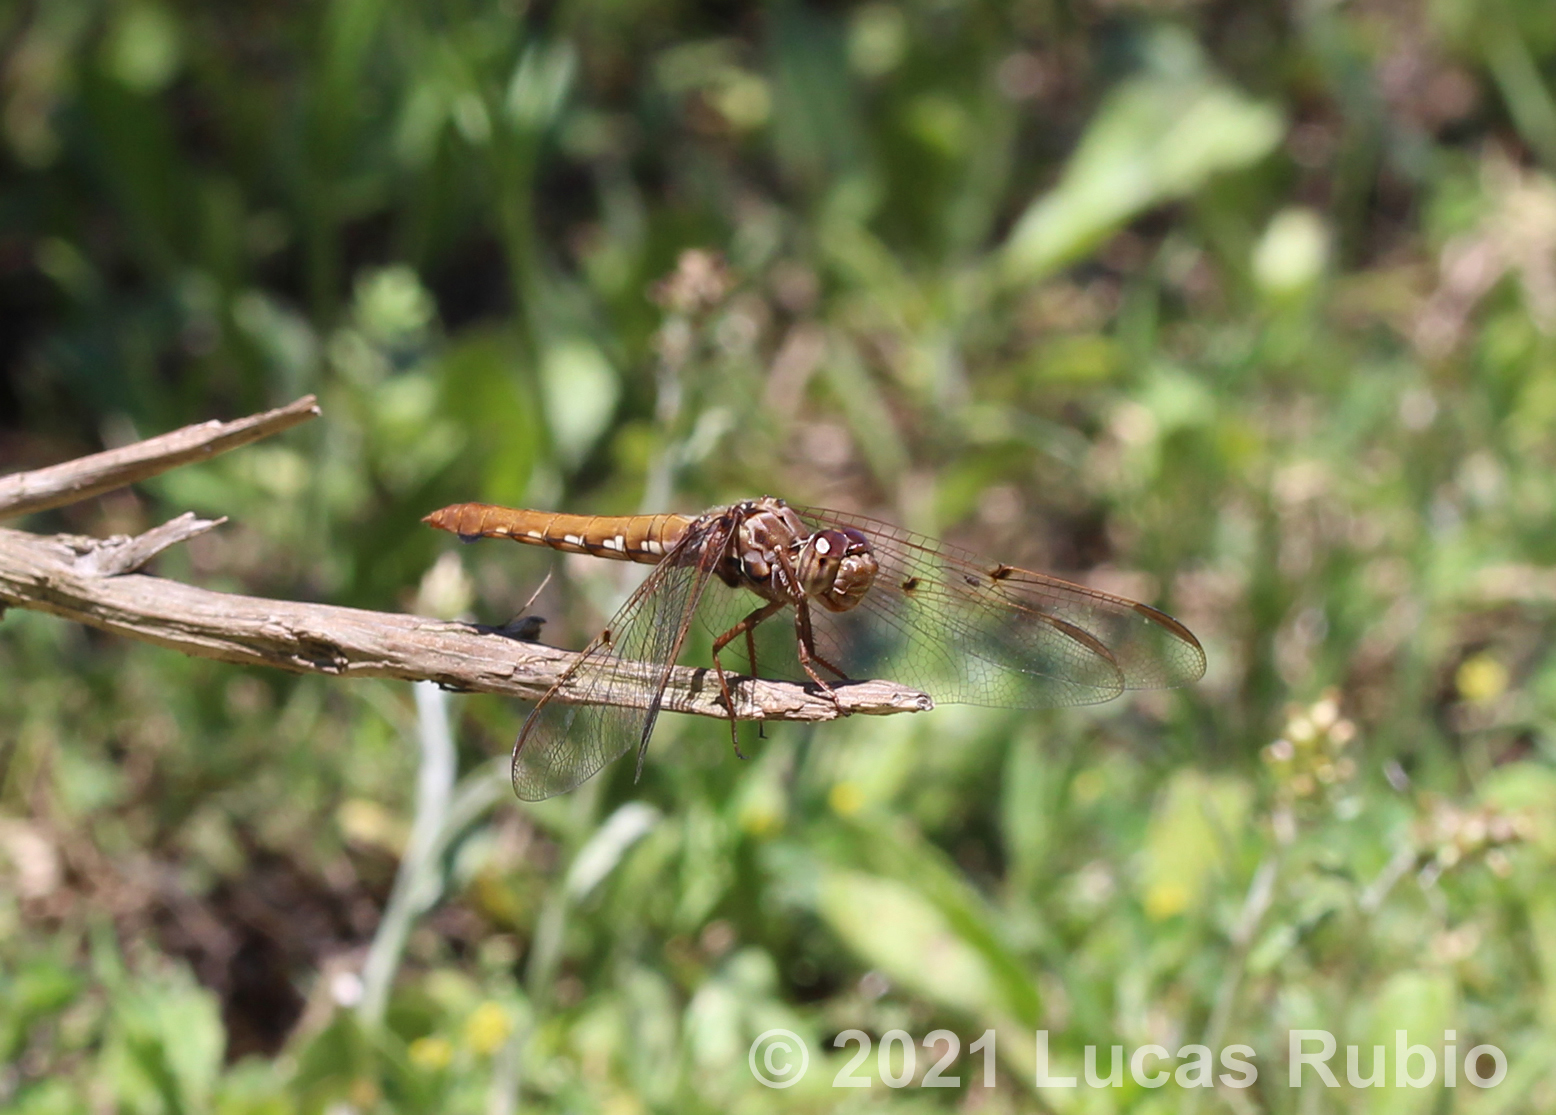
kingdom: Animalia
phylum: Arthropoda
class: Insecta
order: Odonata
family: Libellulidae
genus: Orthemis
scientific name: Orthemis nodiplaga
